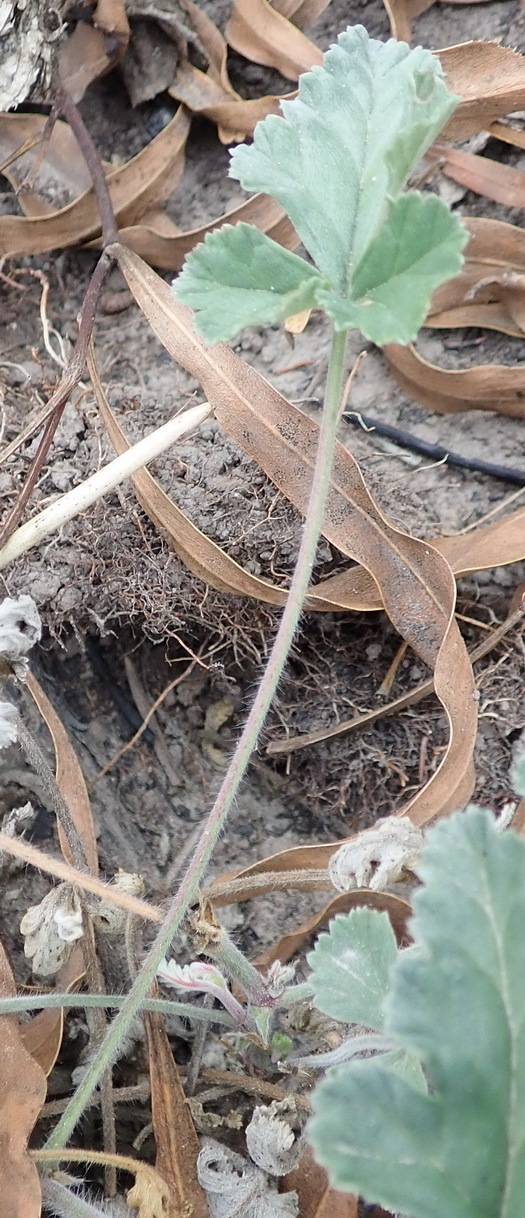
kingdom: Plantae
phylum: Tracheophyta
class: Magnoliopsida
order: Geraniales
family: Geraniaceae
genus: Pelargonium
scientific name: Pelargonium candicans
